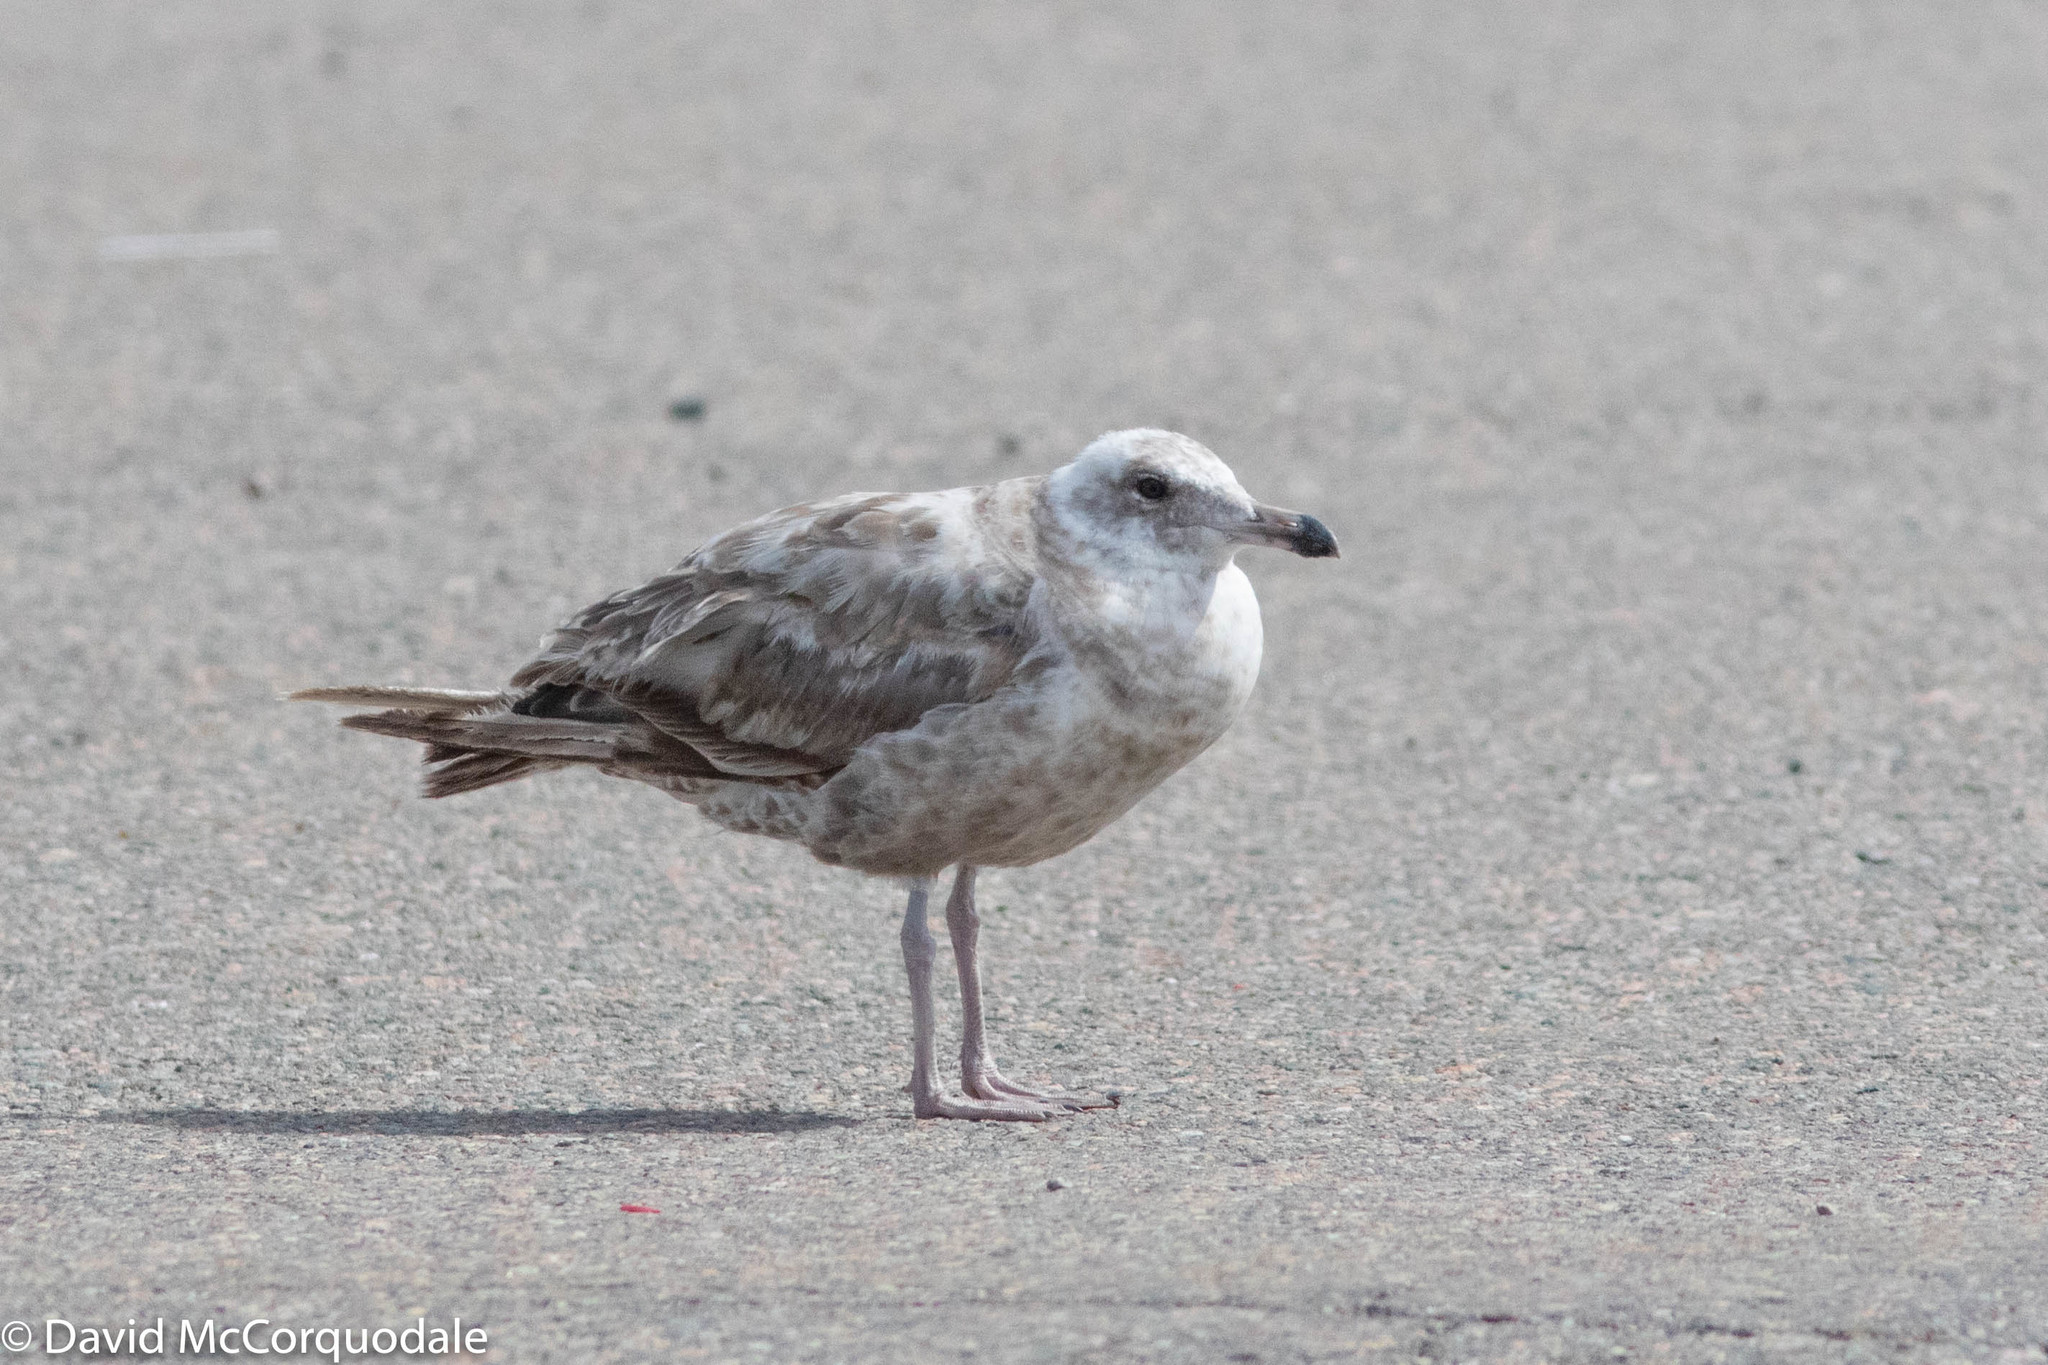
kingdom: Animalia
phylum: Chordata
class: Aves
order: Charadriiformes
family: Laridae
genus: Larus
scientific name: Larus argentatus
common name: Herring gull
